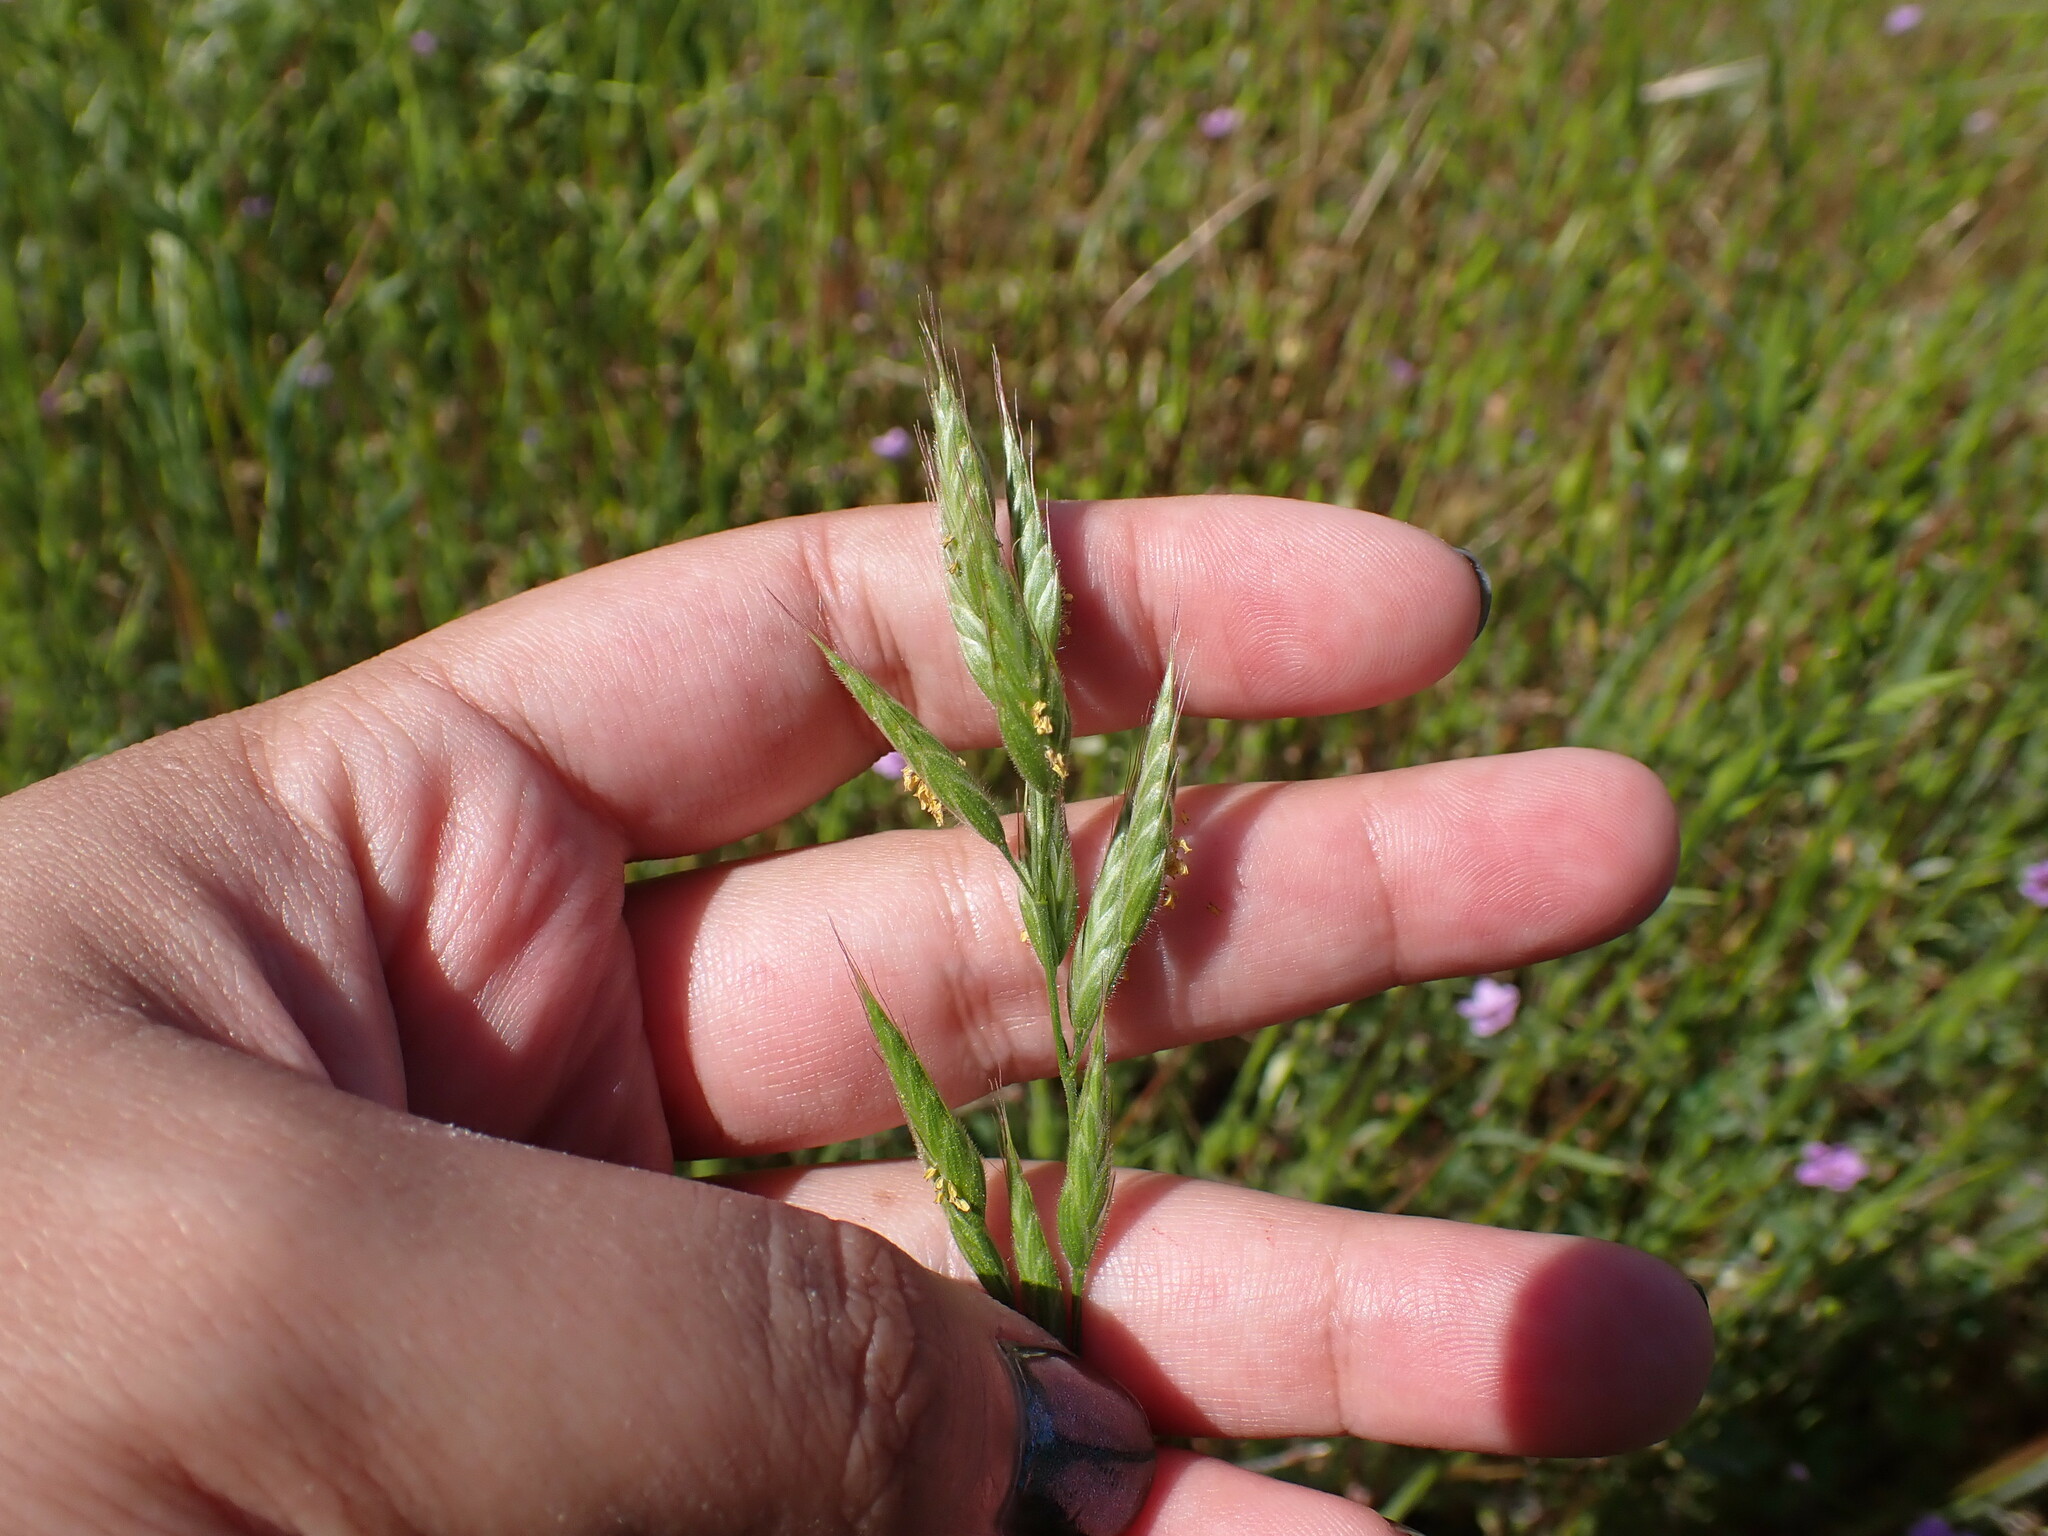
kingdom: Plantae
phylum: Tracheophyta
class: Liliopsida
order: Poales
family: Poaceae
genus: Bromus
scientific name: Bromus hordeaceus
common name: Soft brome
